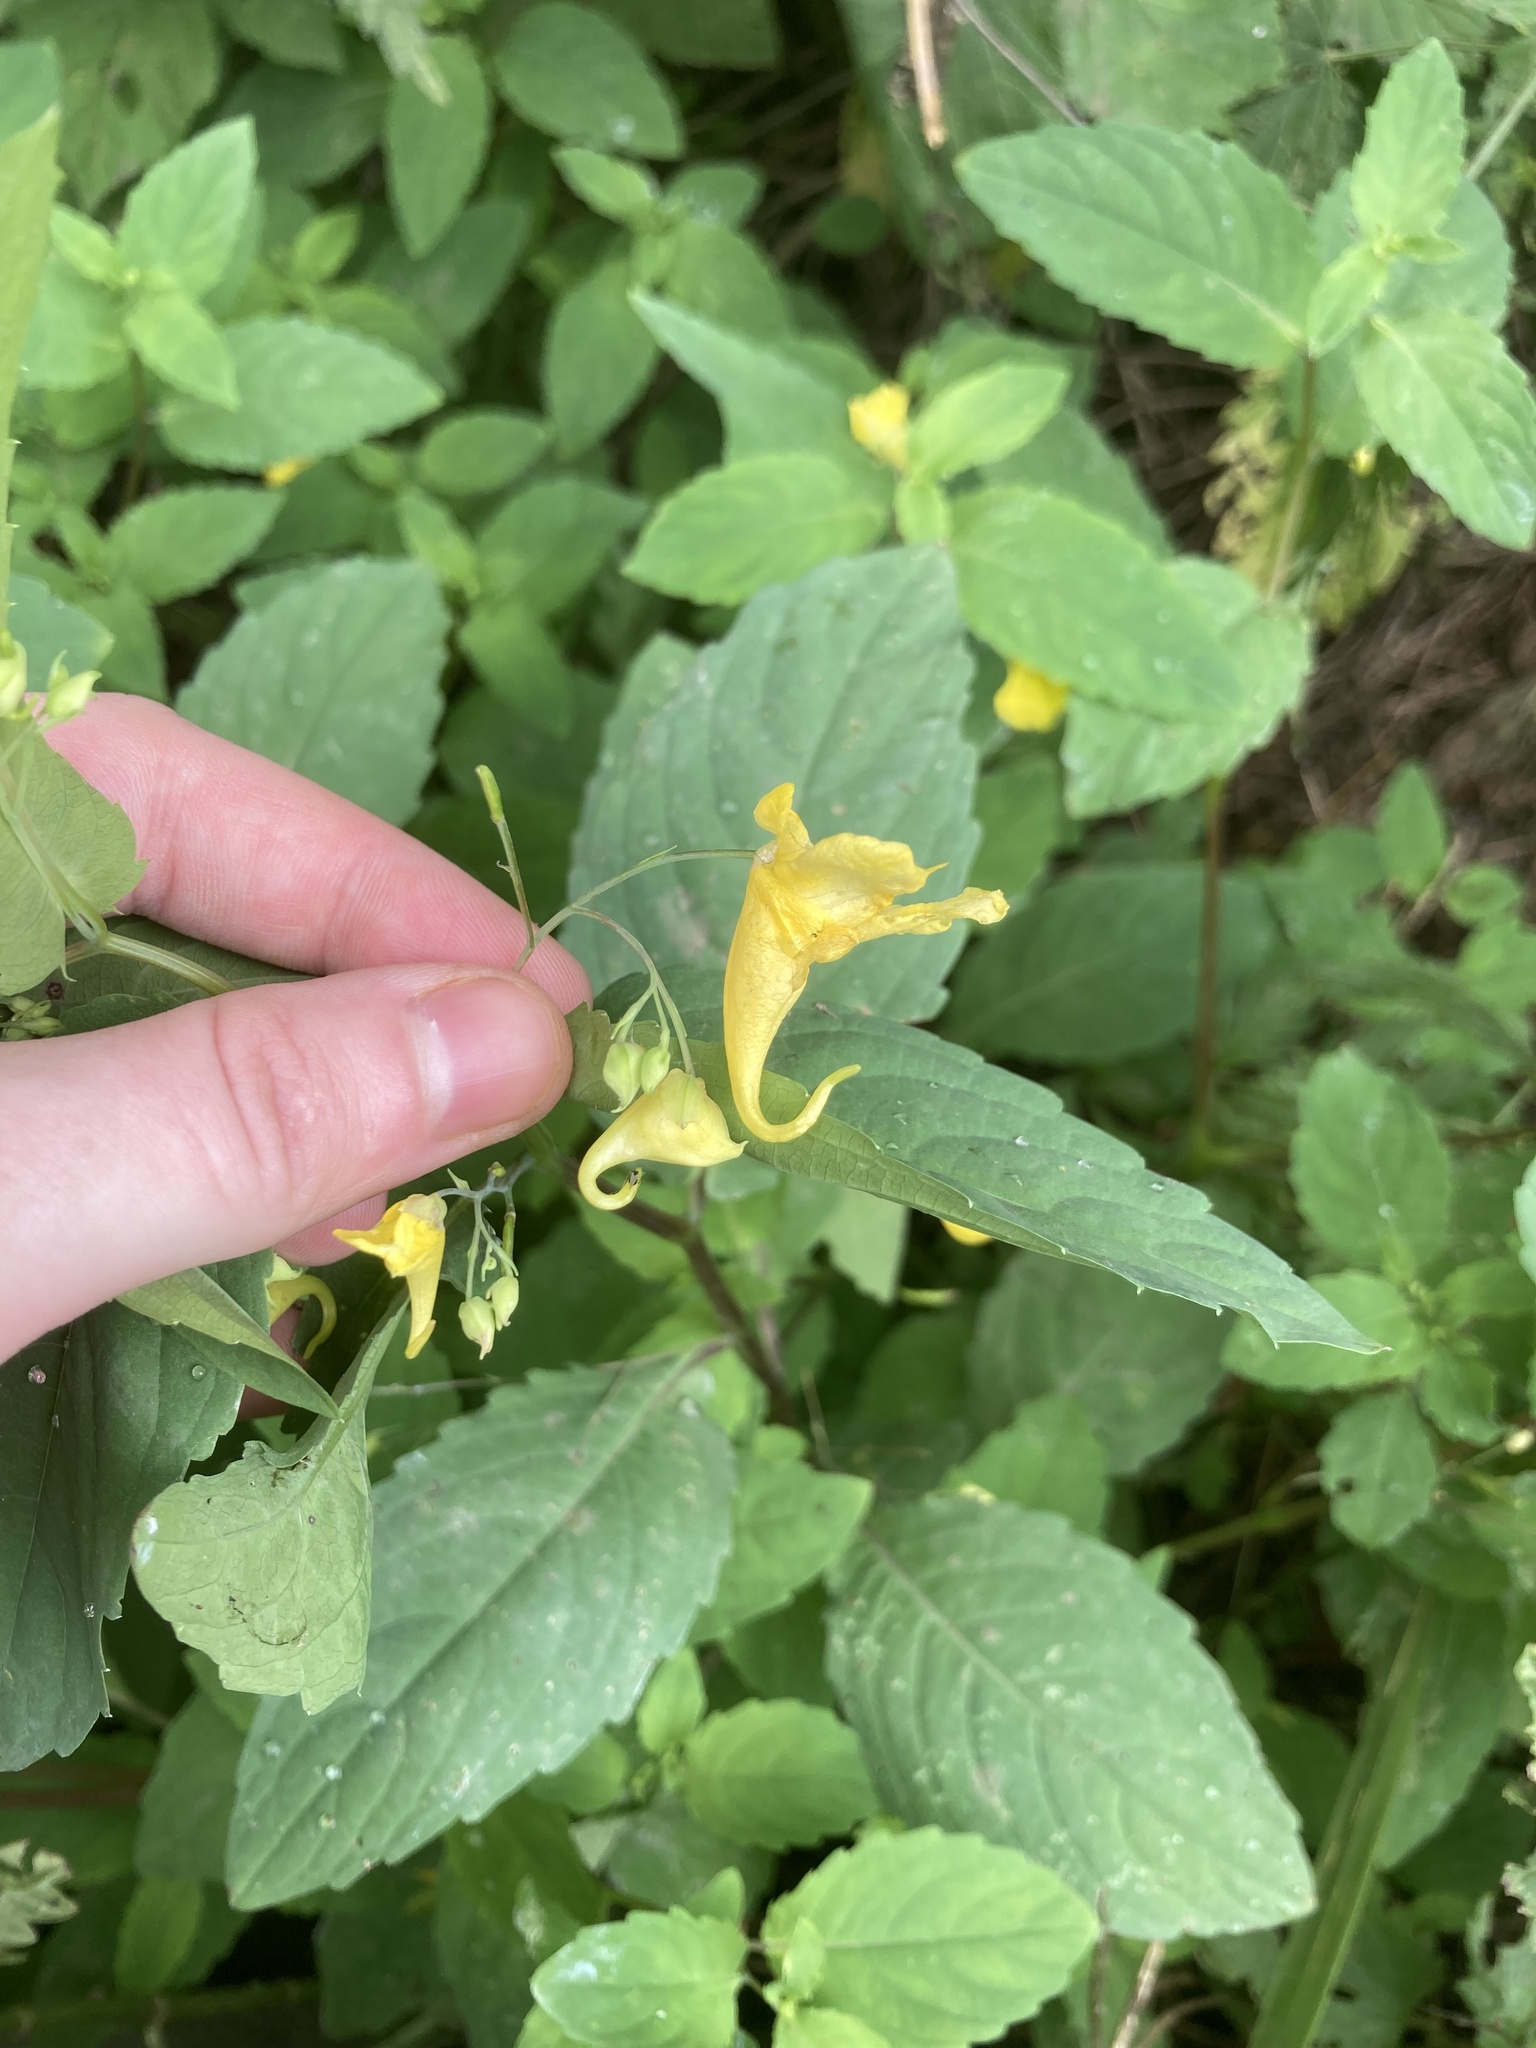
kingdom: Plantae
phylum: Tracheophyta
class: Magnoliopsida
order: Ericales
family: Balsaminaceae
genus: Impatiens
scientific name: Impatiens noli-tangere
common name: Touch-me-not balsam
